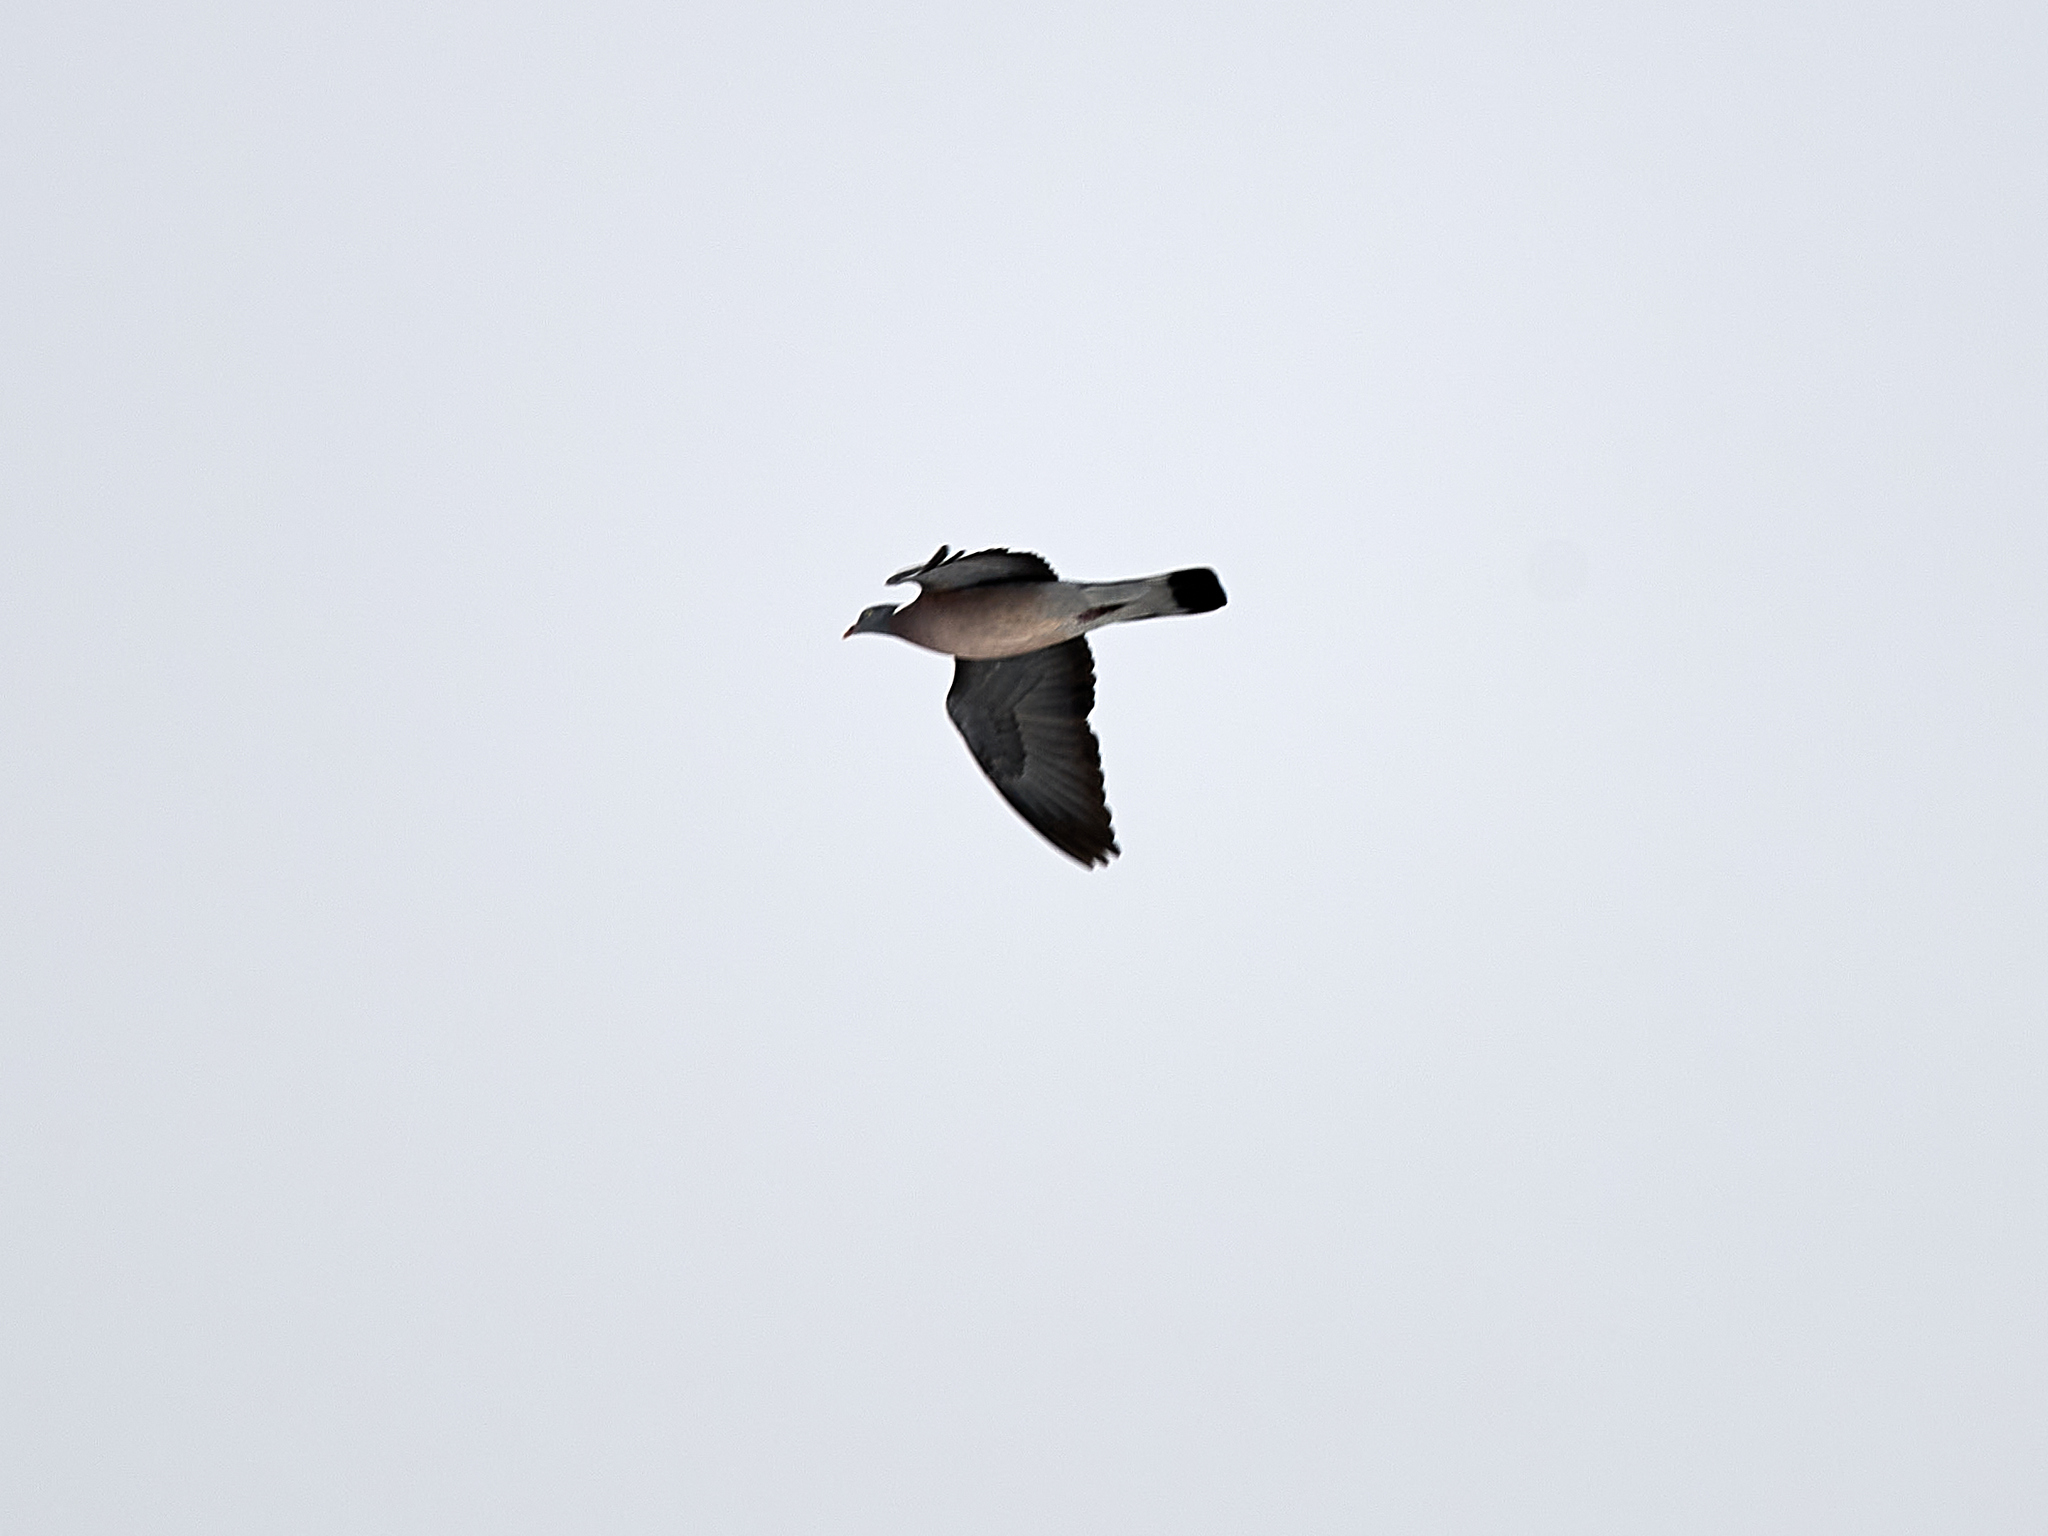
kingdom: Animalia
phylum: Chordata
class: Aves
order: Columbiformes
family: Columbidae
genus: Columba
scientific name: Columba palumbus
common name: Common wood pigeon
